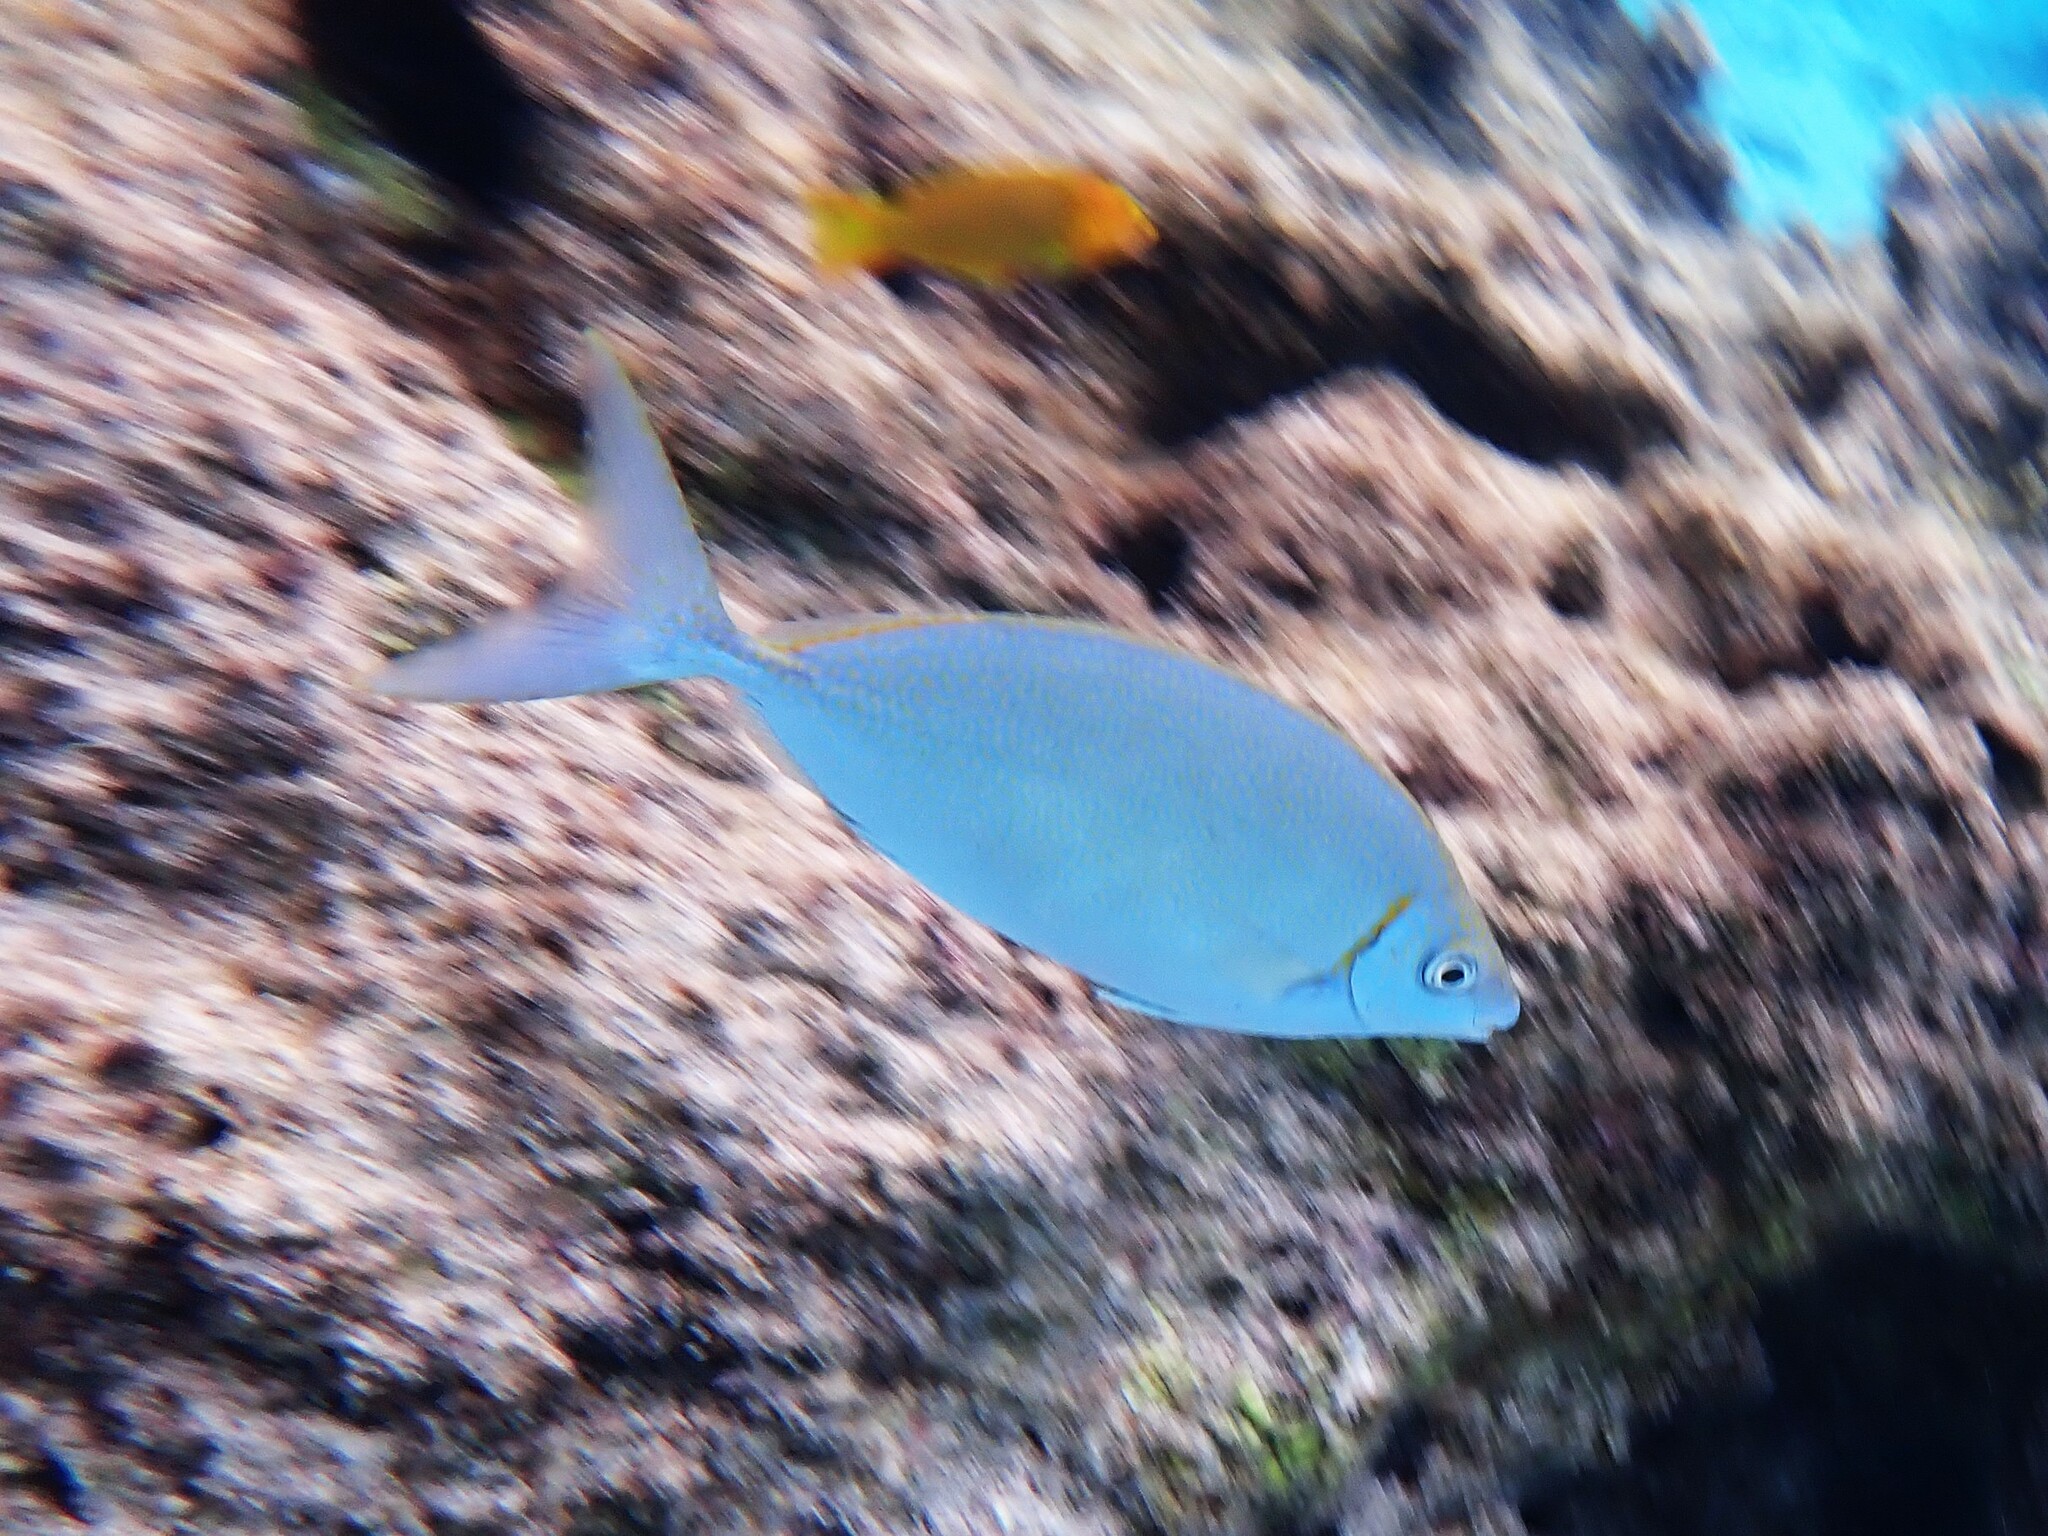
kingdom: Animalia
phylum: Chordata
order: Perciformes
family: Siganidae
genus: Siganus
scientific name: Siganus argenteus
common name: Forktail rabbitfish
